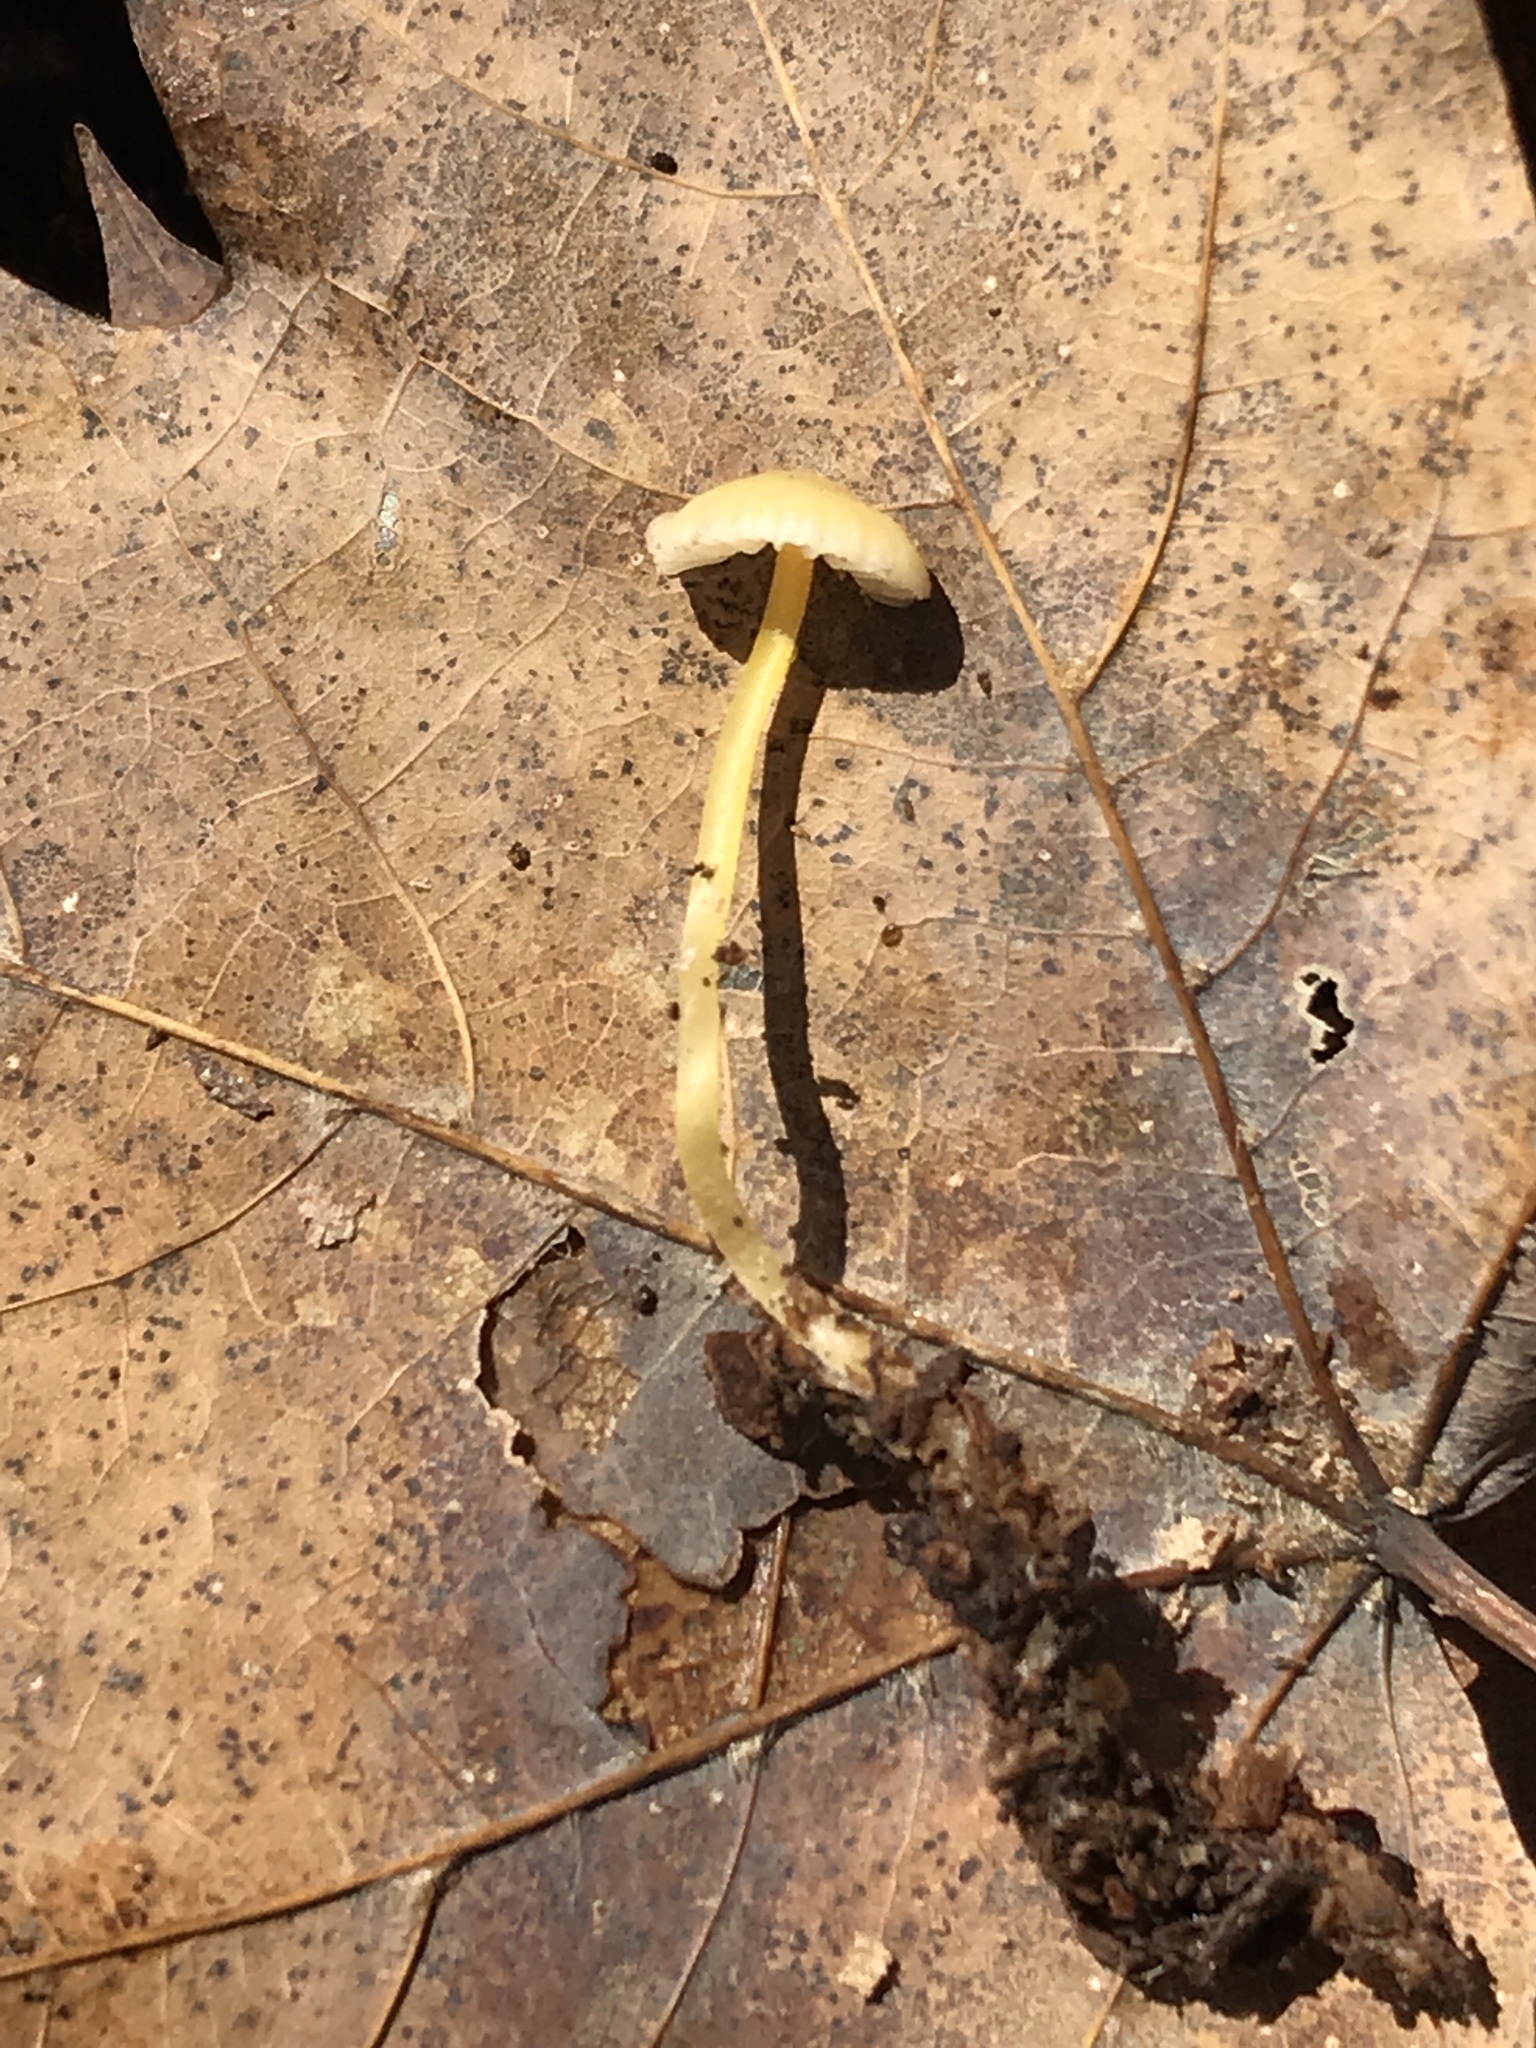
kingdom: Fungi
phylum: Basidiomycota
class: Agaricomycetes
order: Agaricales
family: Mycenaceae
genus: Mycena
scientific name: Mycena crocea
